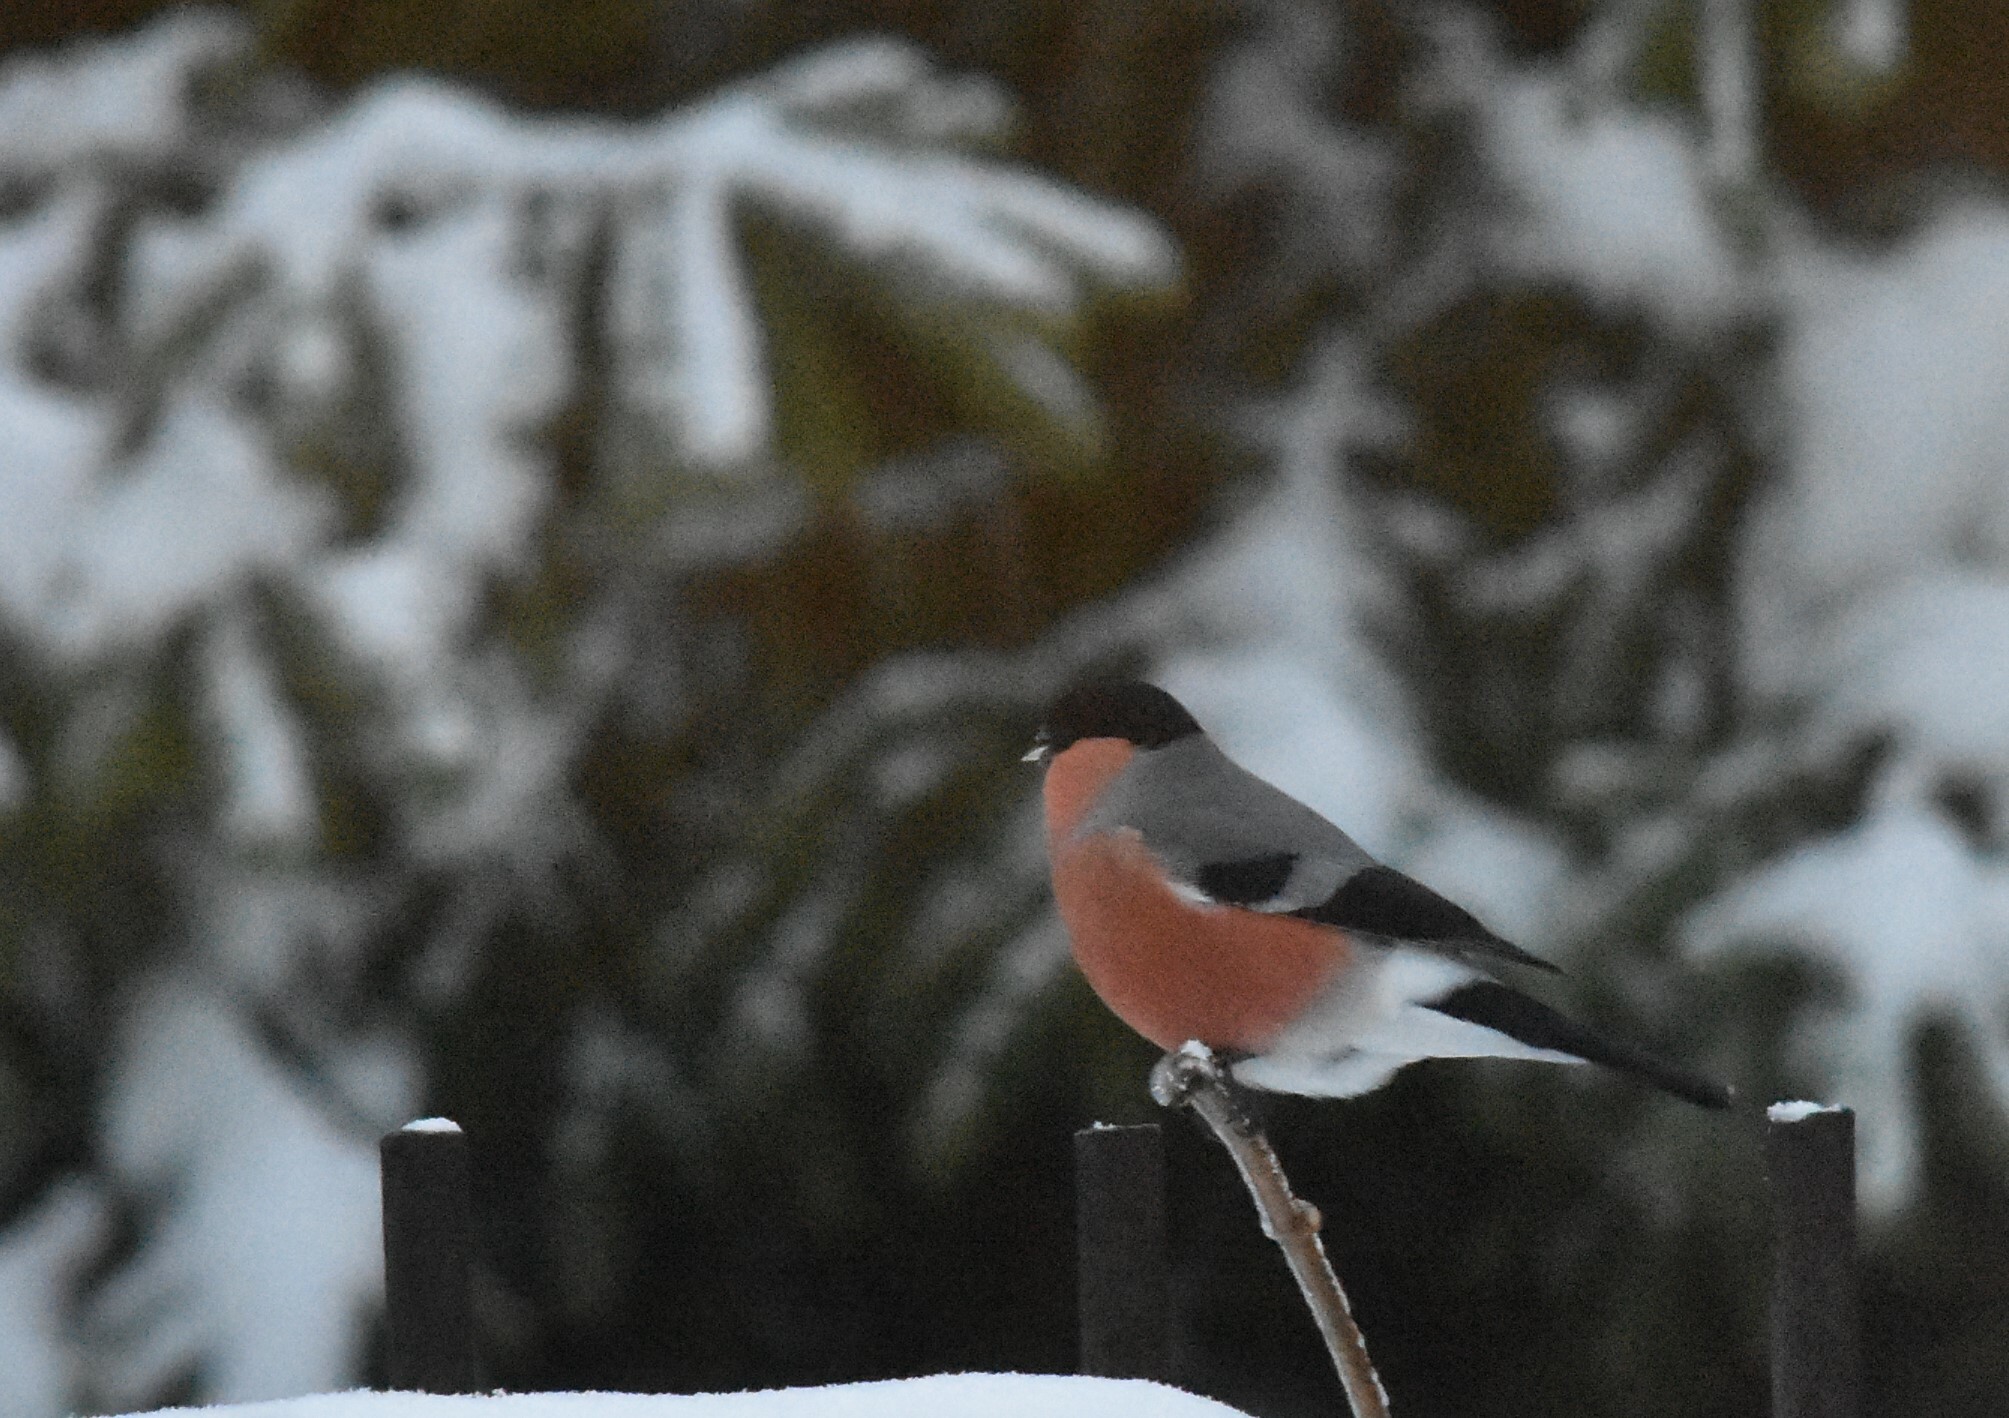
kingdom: Animalia
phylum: Chordata
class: Aves
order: Passeriformes
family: Fringillidae
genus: Pyrrhula
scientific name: Pyrrhula pyrrhula
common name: Eurasian bullfinch
